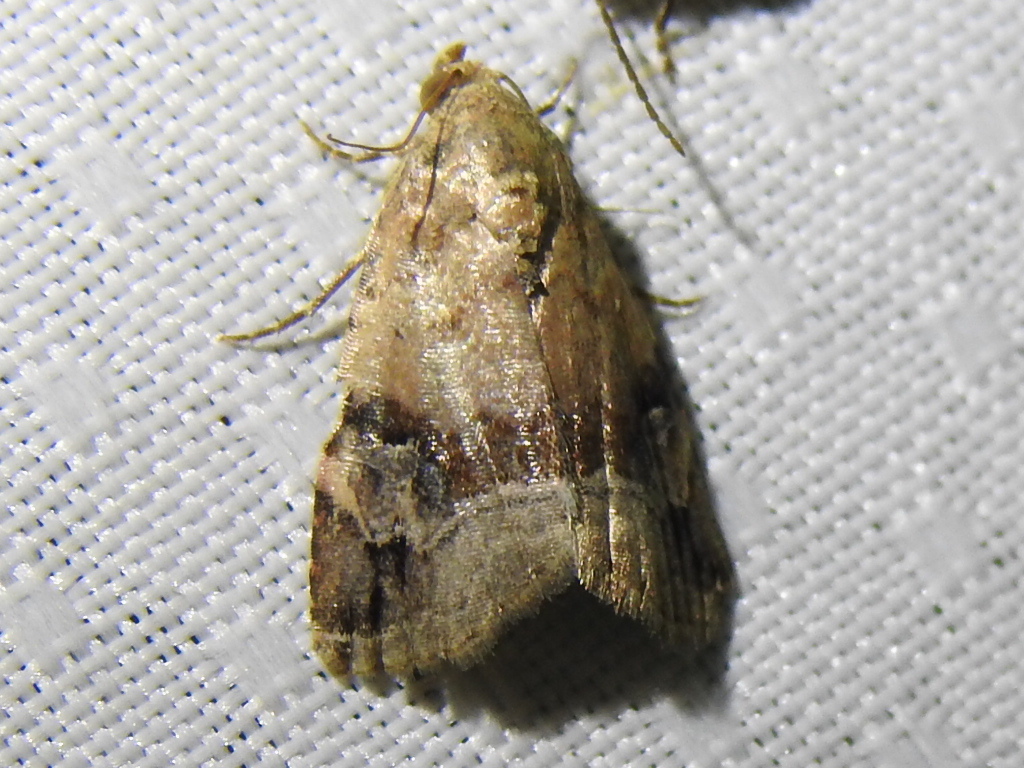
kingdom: Animalia
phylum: Arthropoda
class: Insecta
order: Lepidoptera
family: Noctuidae
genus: Ozarba
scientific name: Ozarba aeria
